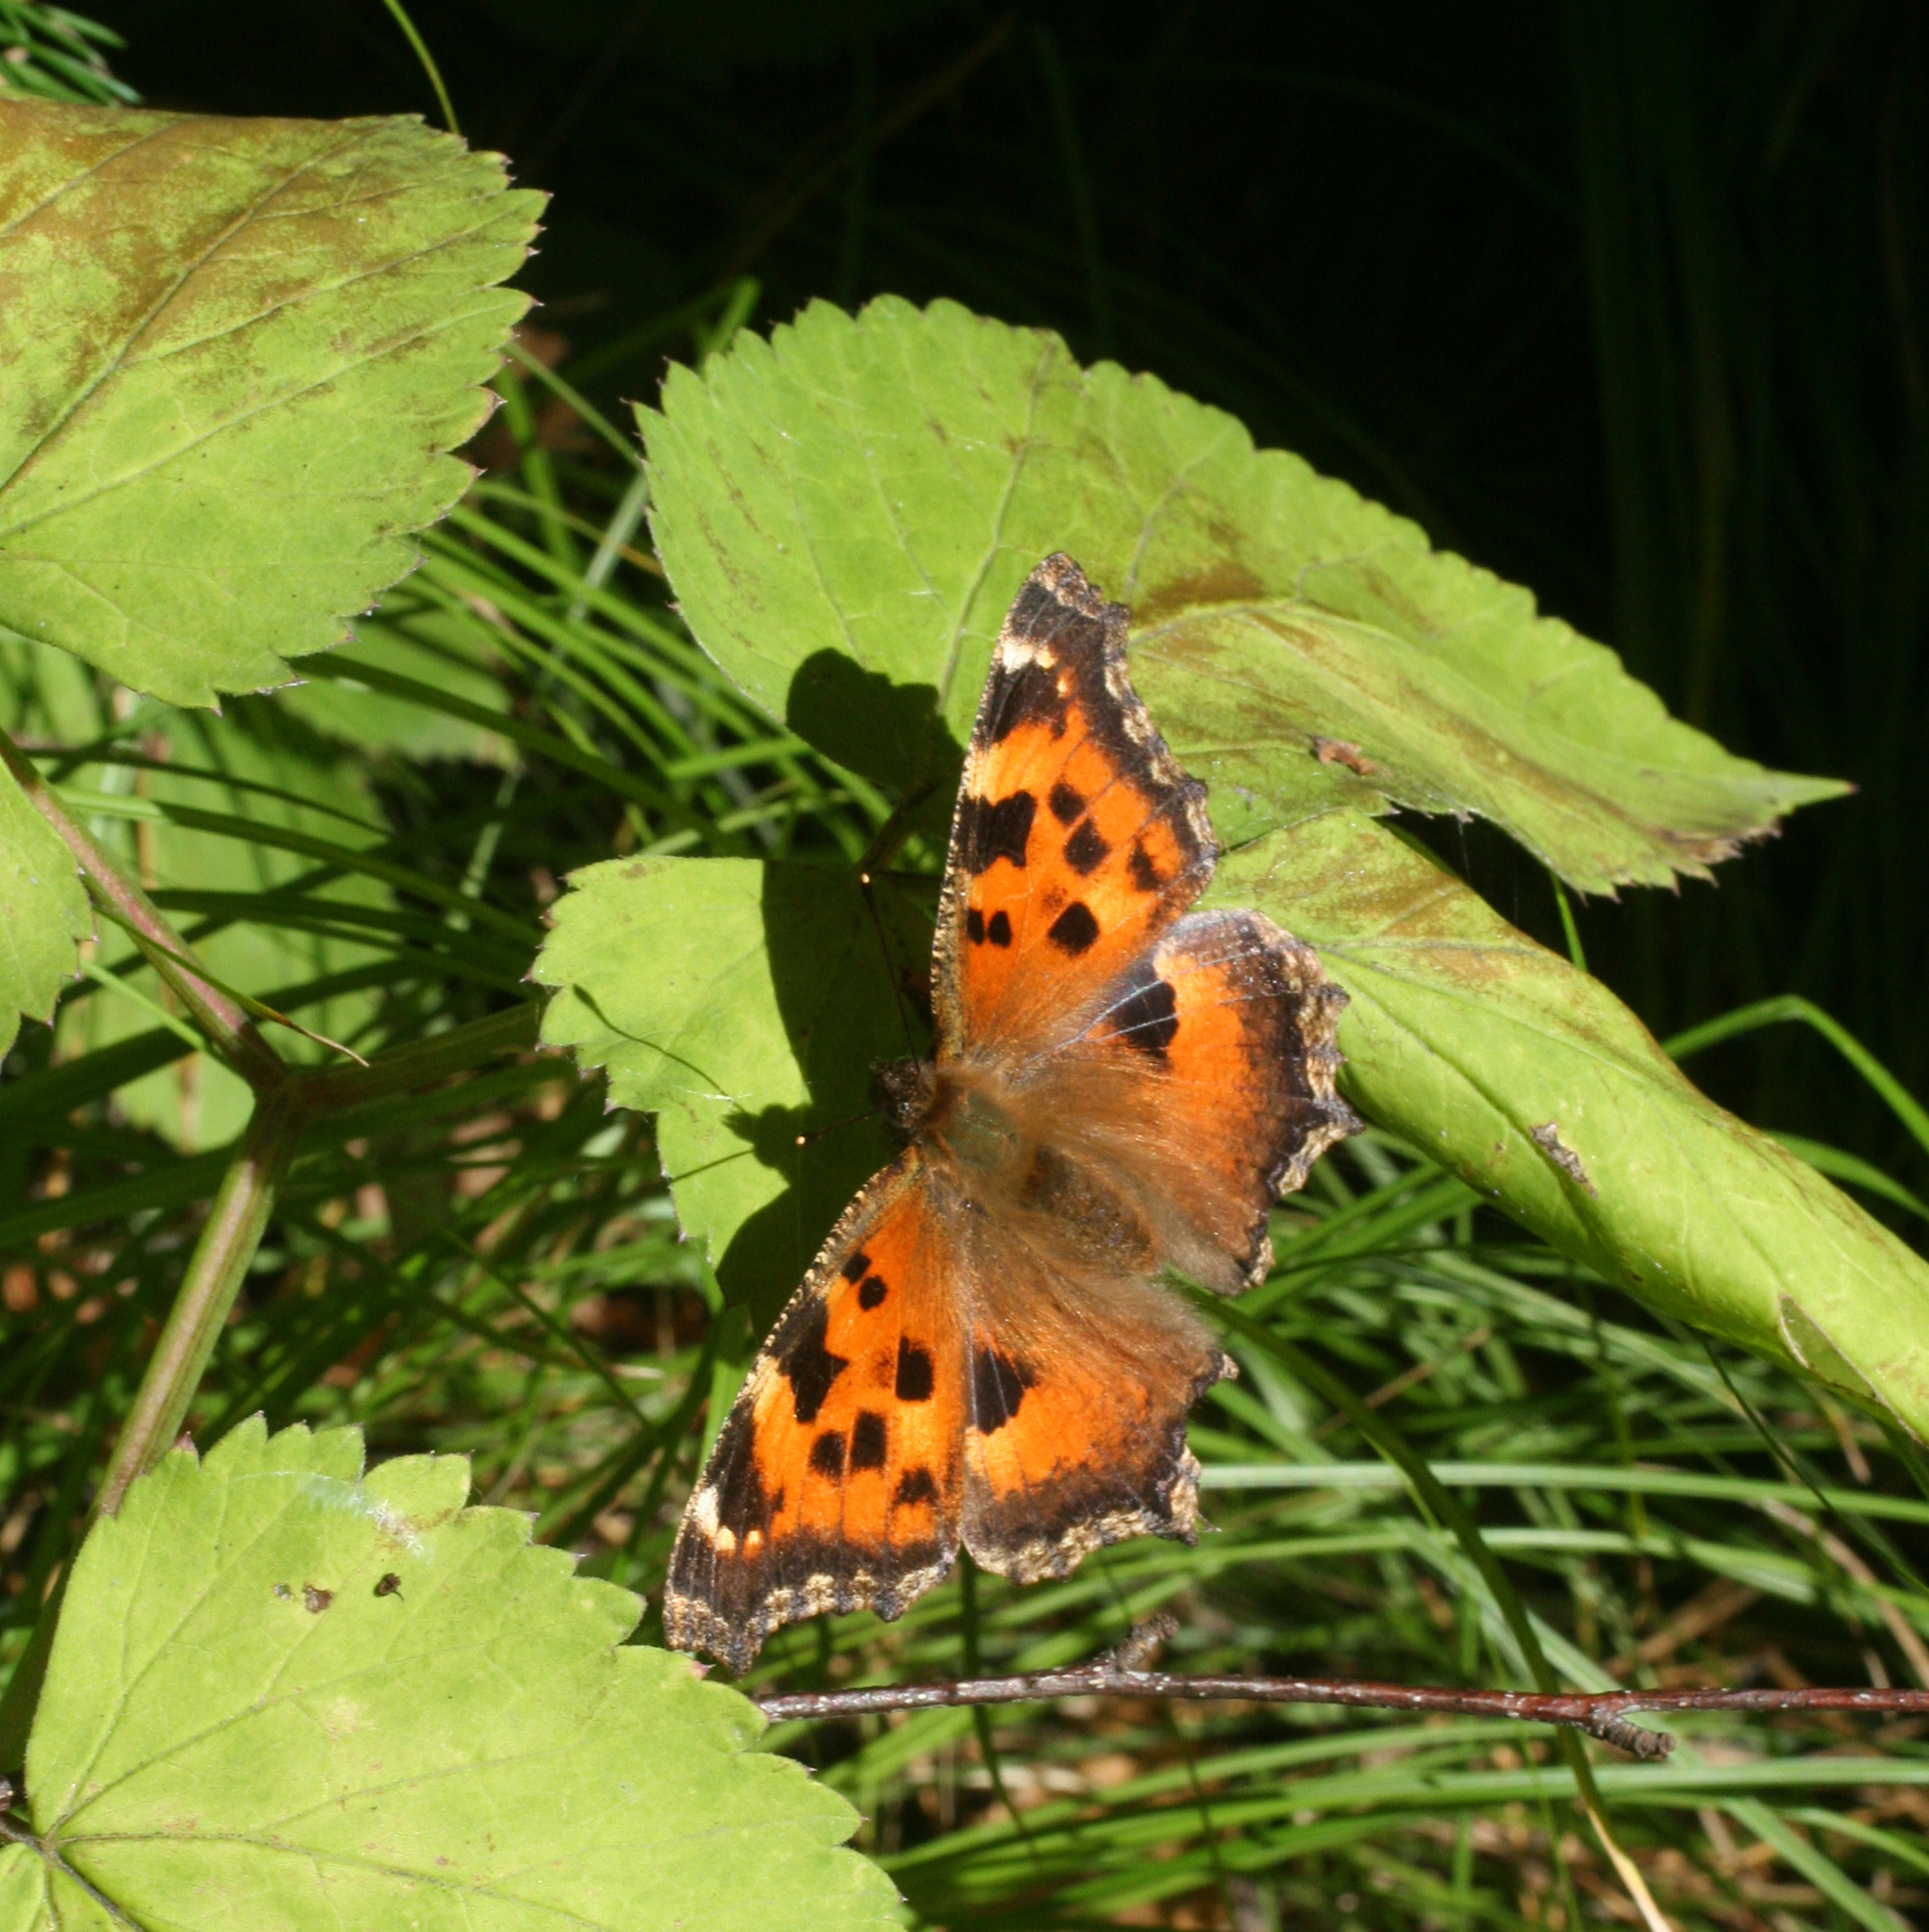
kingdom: Animalia
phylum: Arthropoda
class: Insecta
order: Lepidoptera
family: Nymphalidae
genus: Nymphalis
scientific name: Nymphalis xanthomelas
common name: Scarce tortoiseshell
